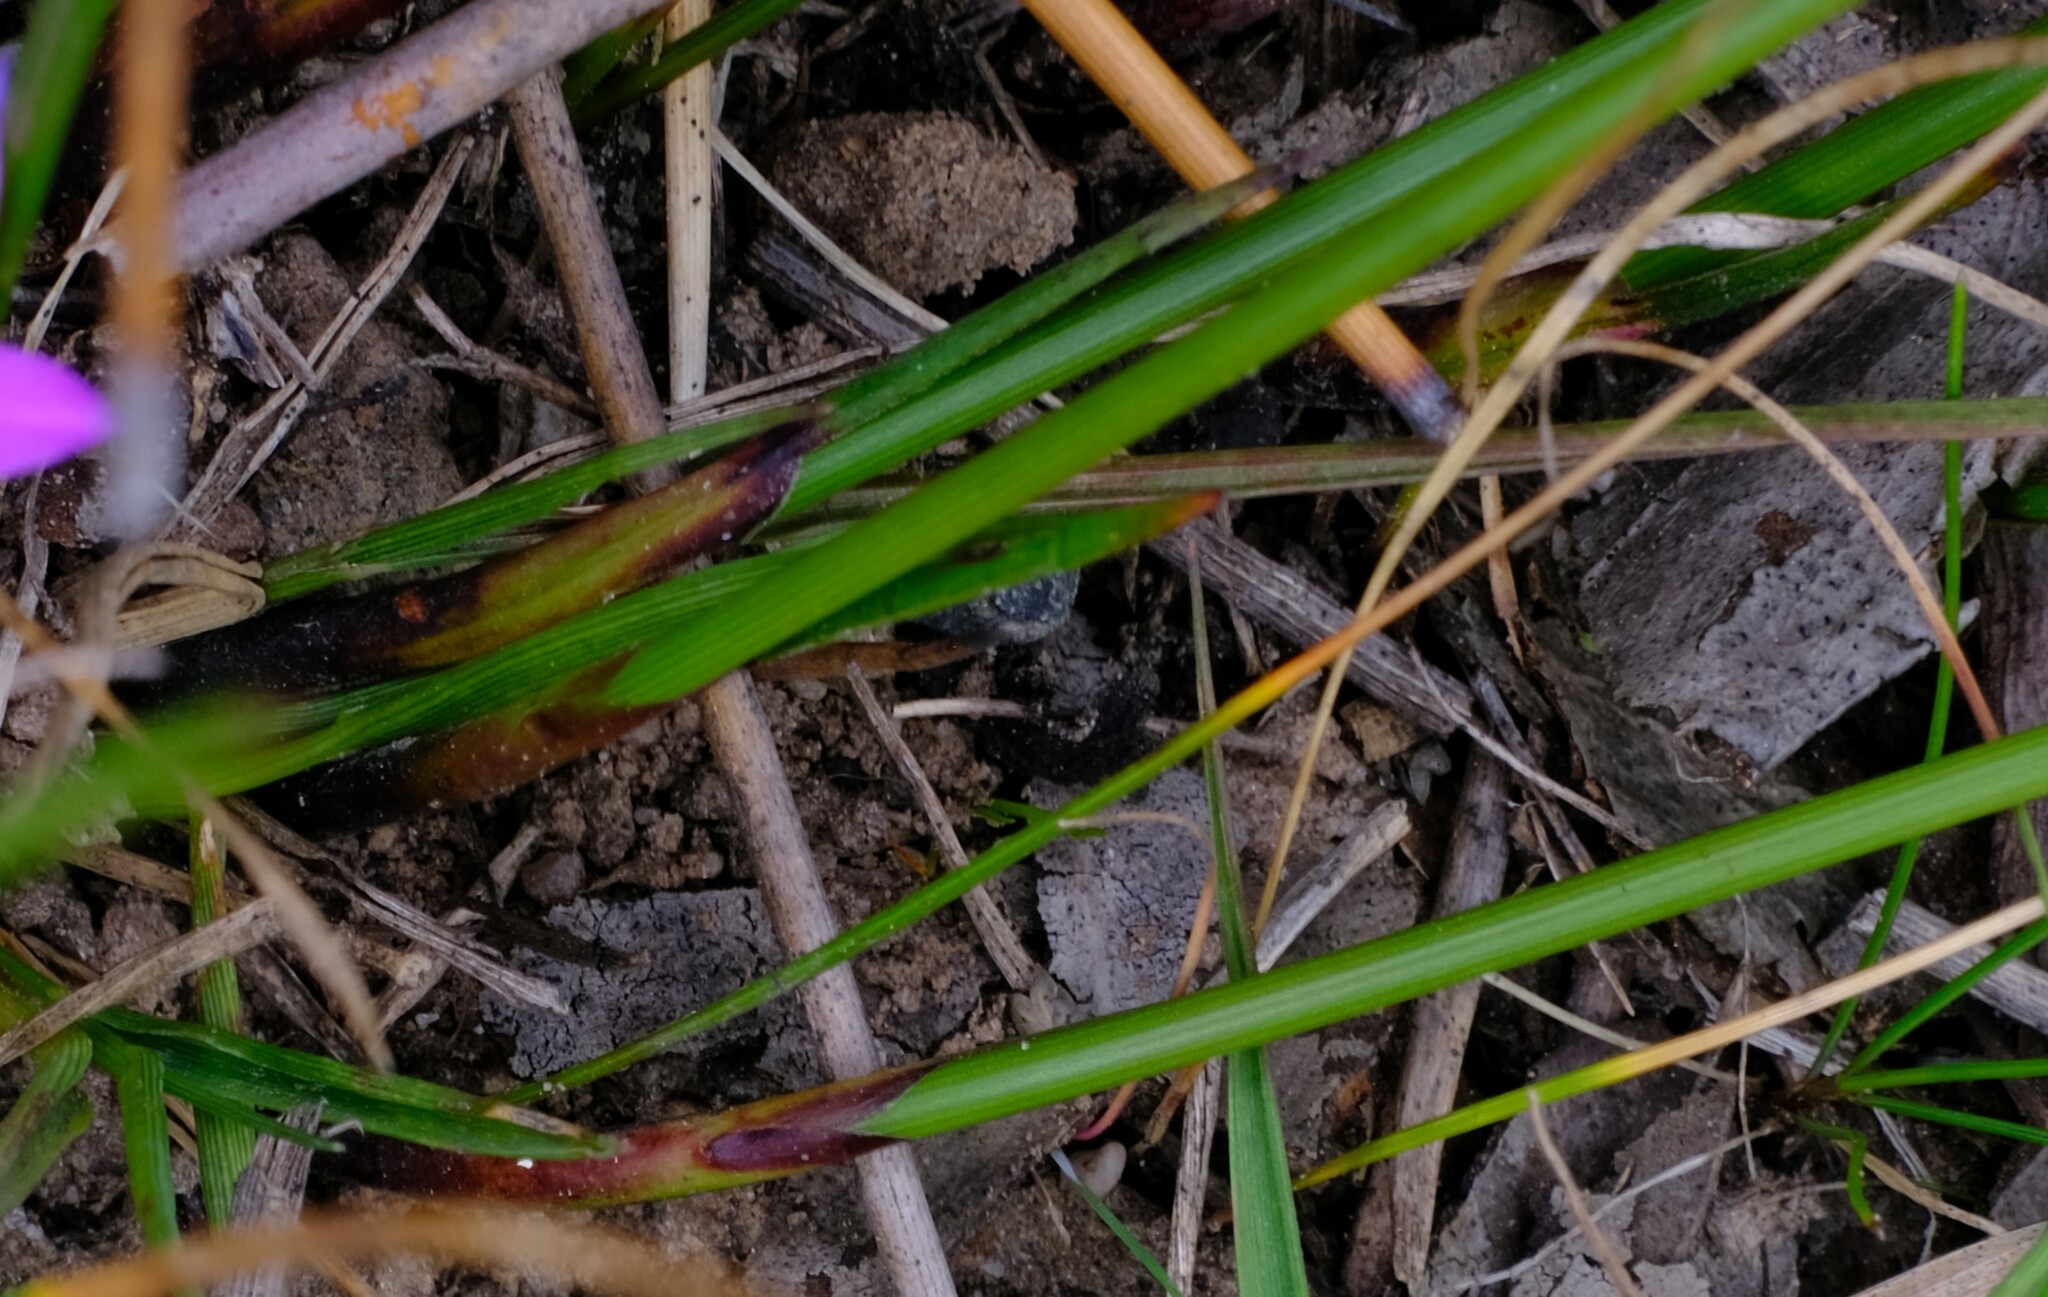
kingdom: Plantae
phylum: Tracheophyta
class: Liliopsida
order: Poales
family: Cyperaceae
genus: Schoenus
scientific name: Schoenus laevigatus
